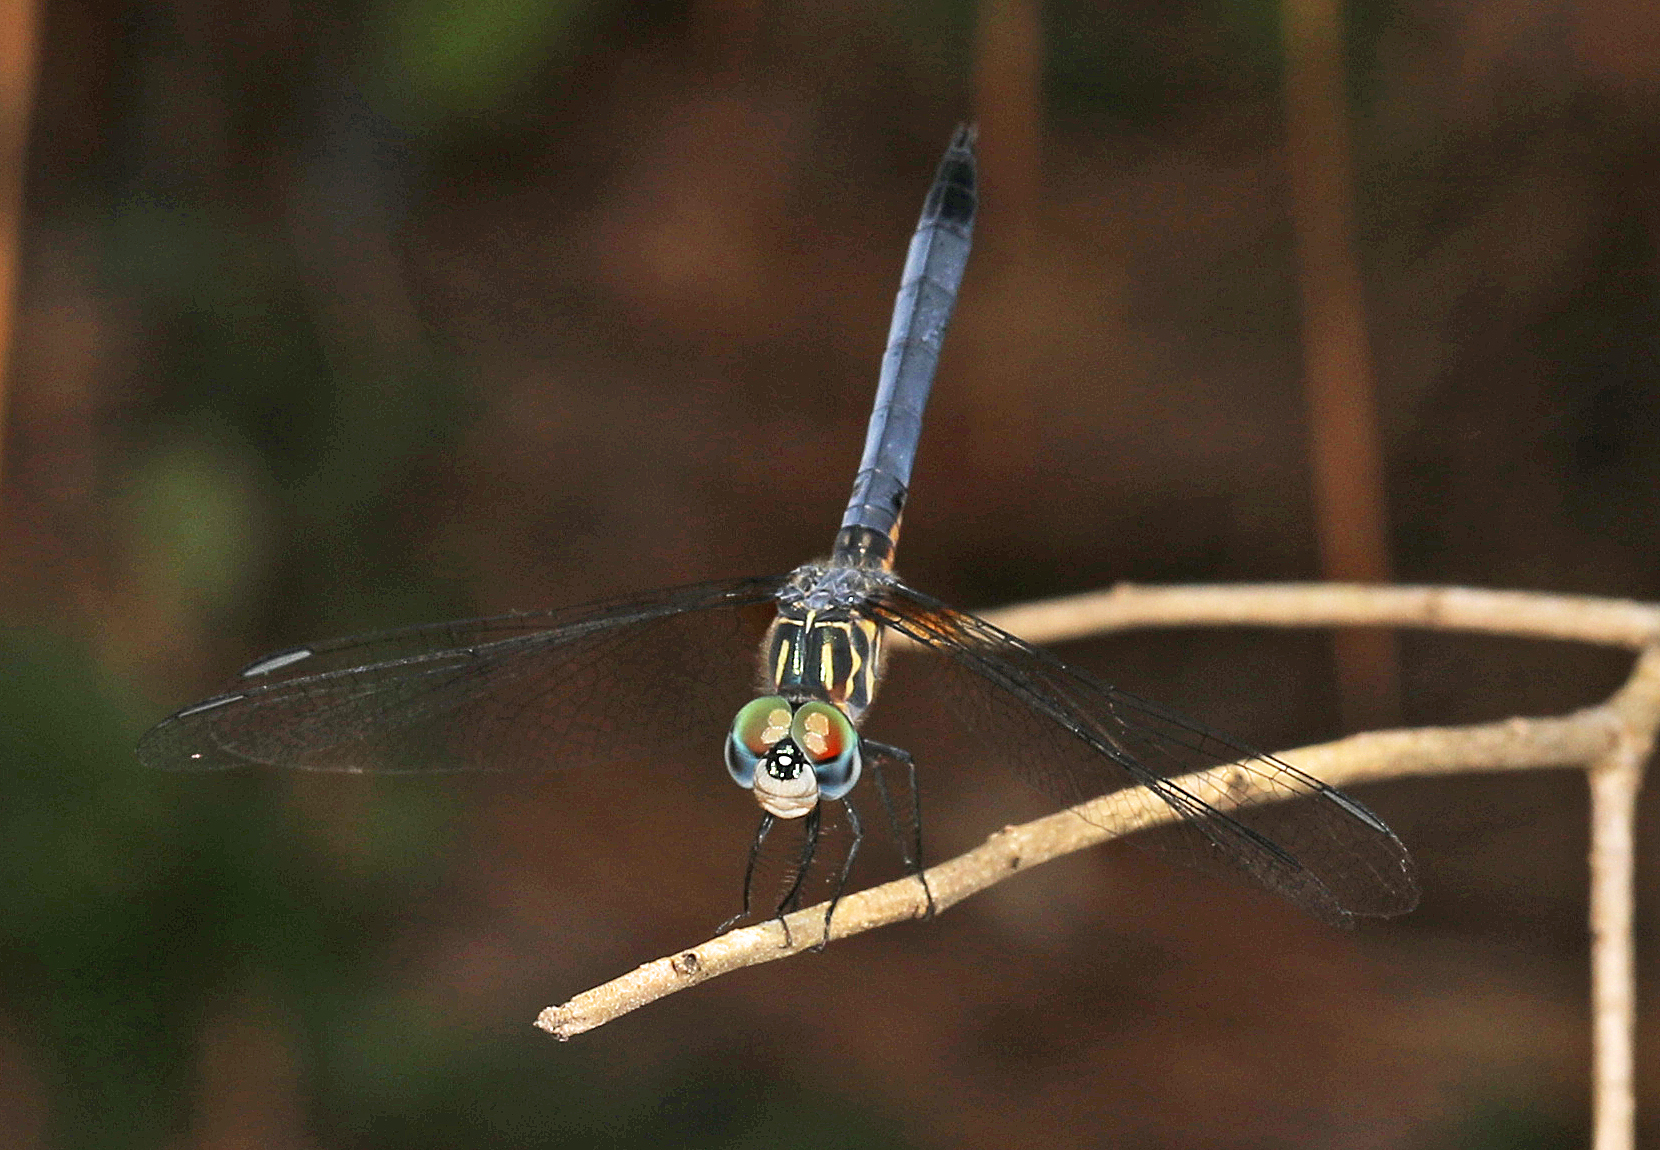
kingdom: Animalia
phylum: Arthropoda
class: Insecta
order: Odonata
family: Libellulidae
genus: Pachydiplax
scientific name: Pachydiplax longipennis
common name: Blue dasher
